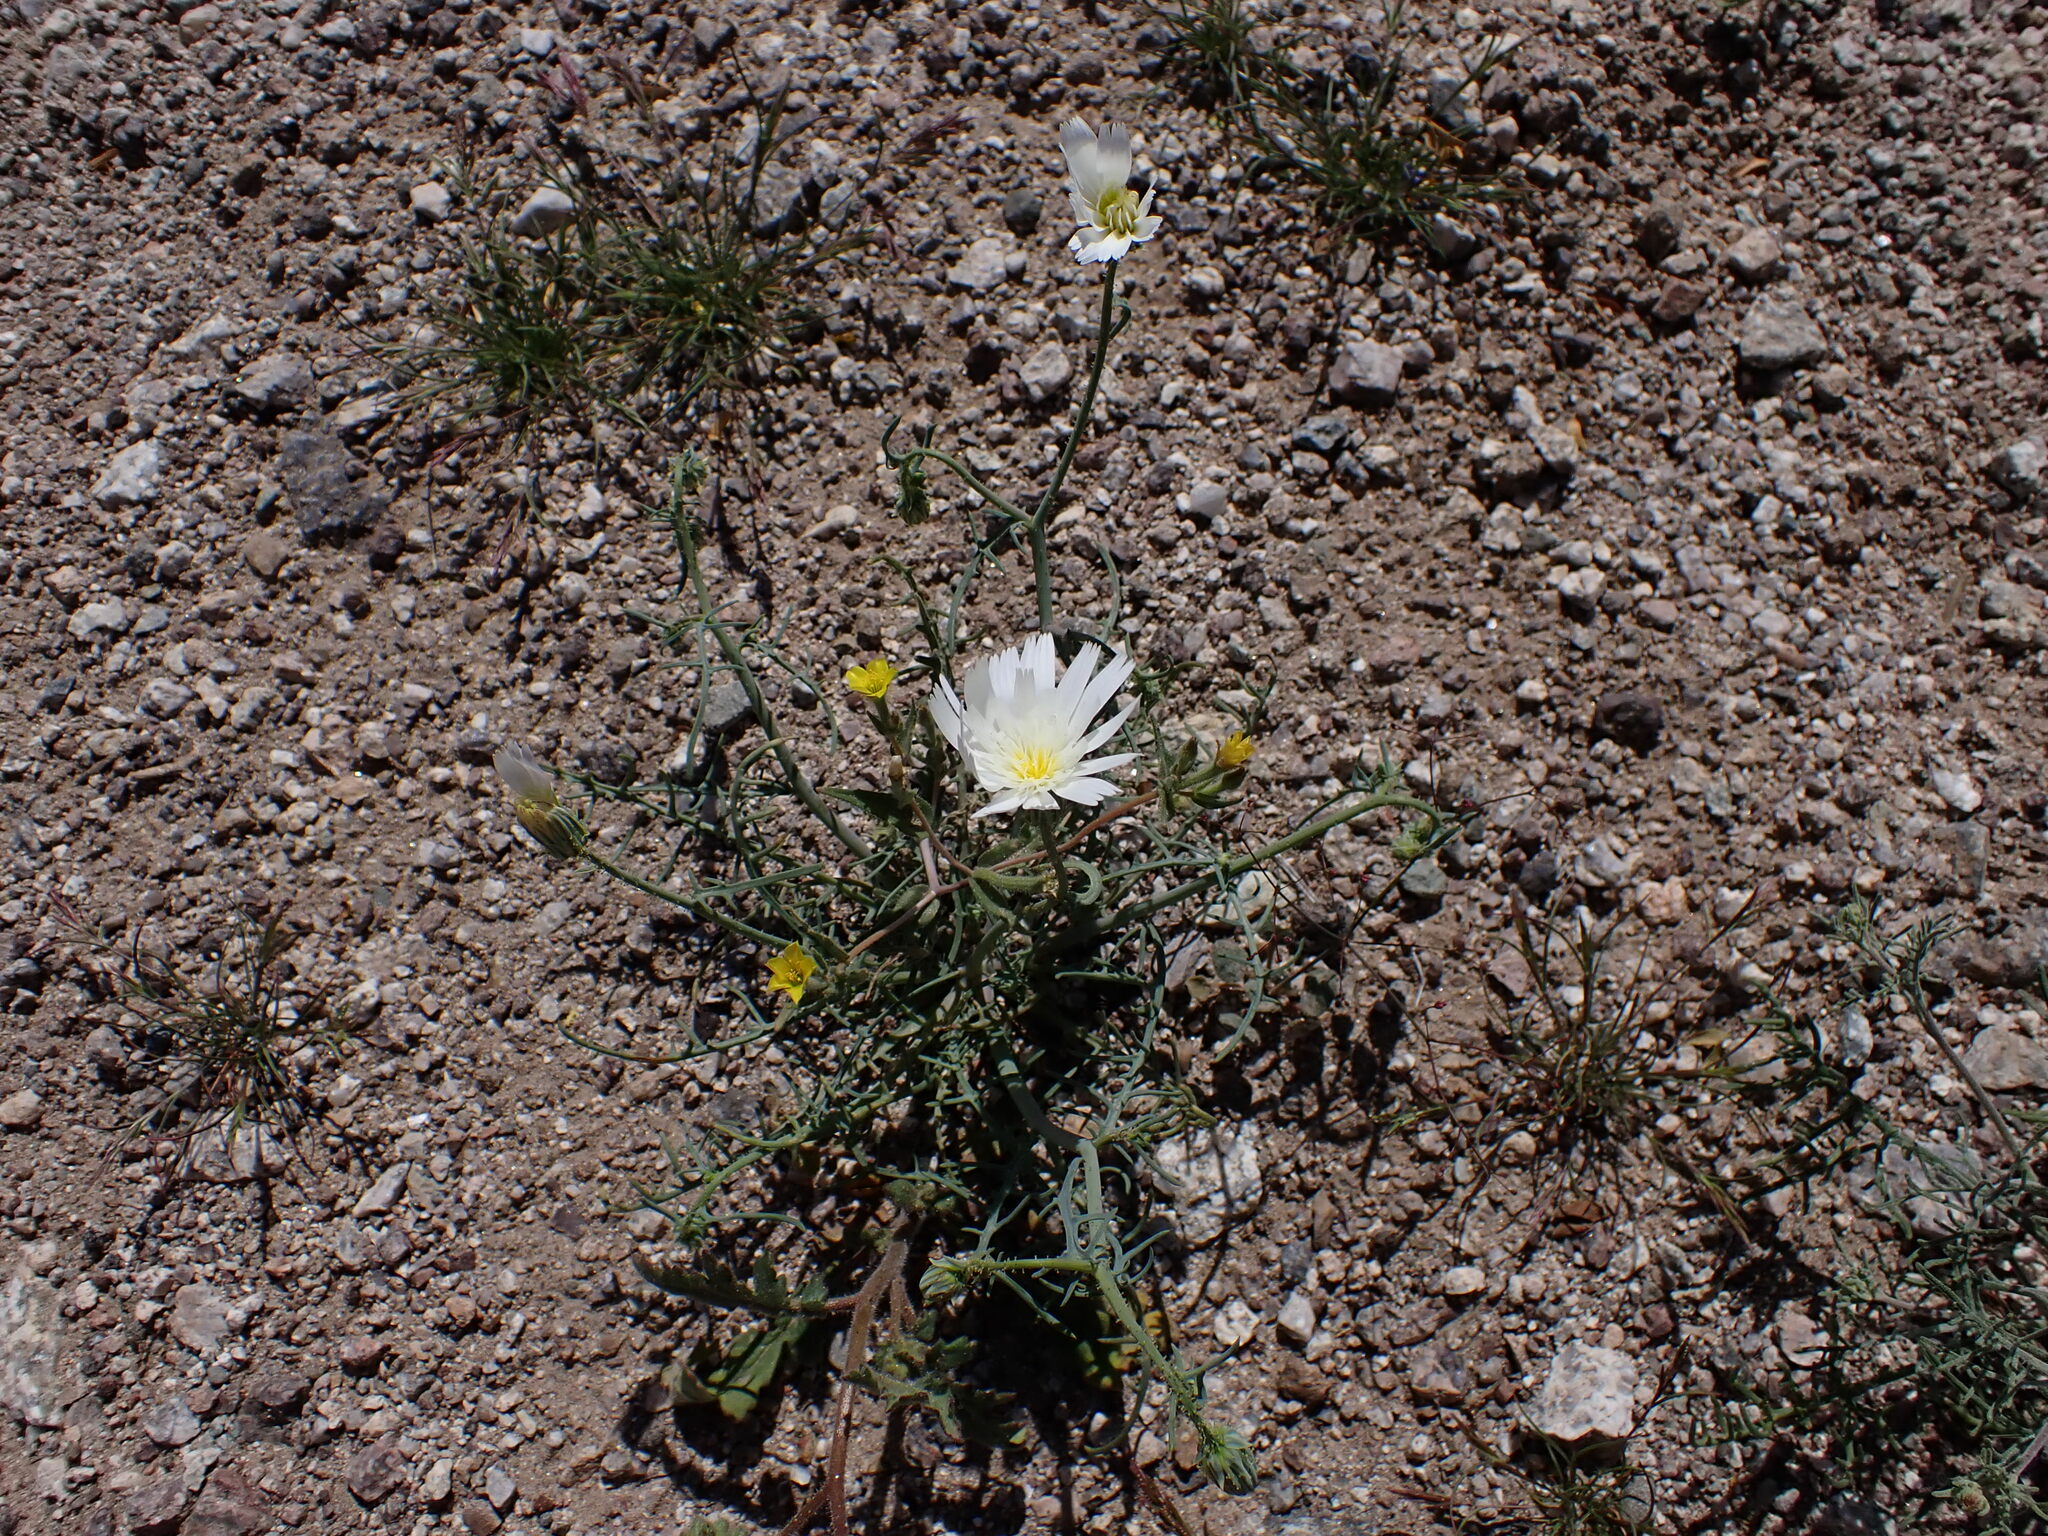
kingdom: Plantae
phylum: Tracheophyta
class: Magnoliopsida
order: Asterales
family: Asteraceae
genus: Rafinesquia
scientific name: Rafinesquia neomexicana
